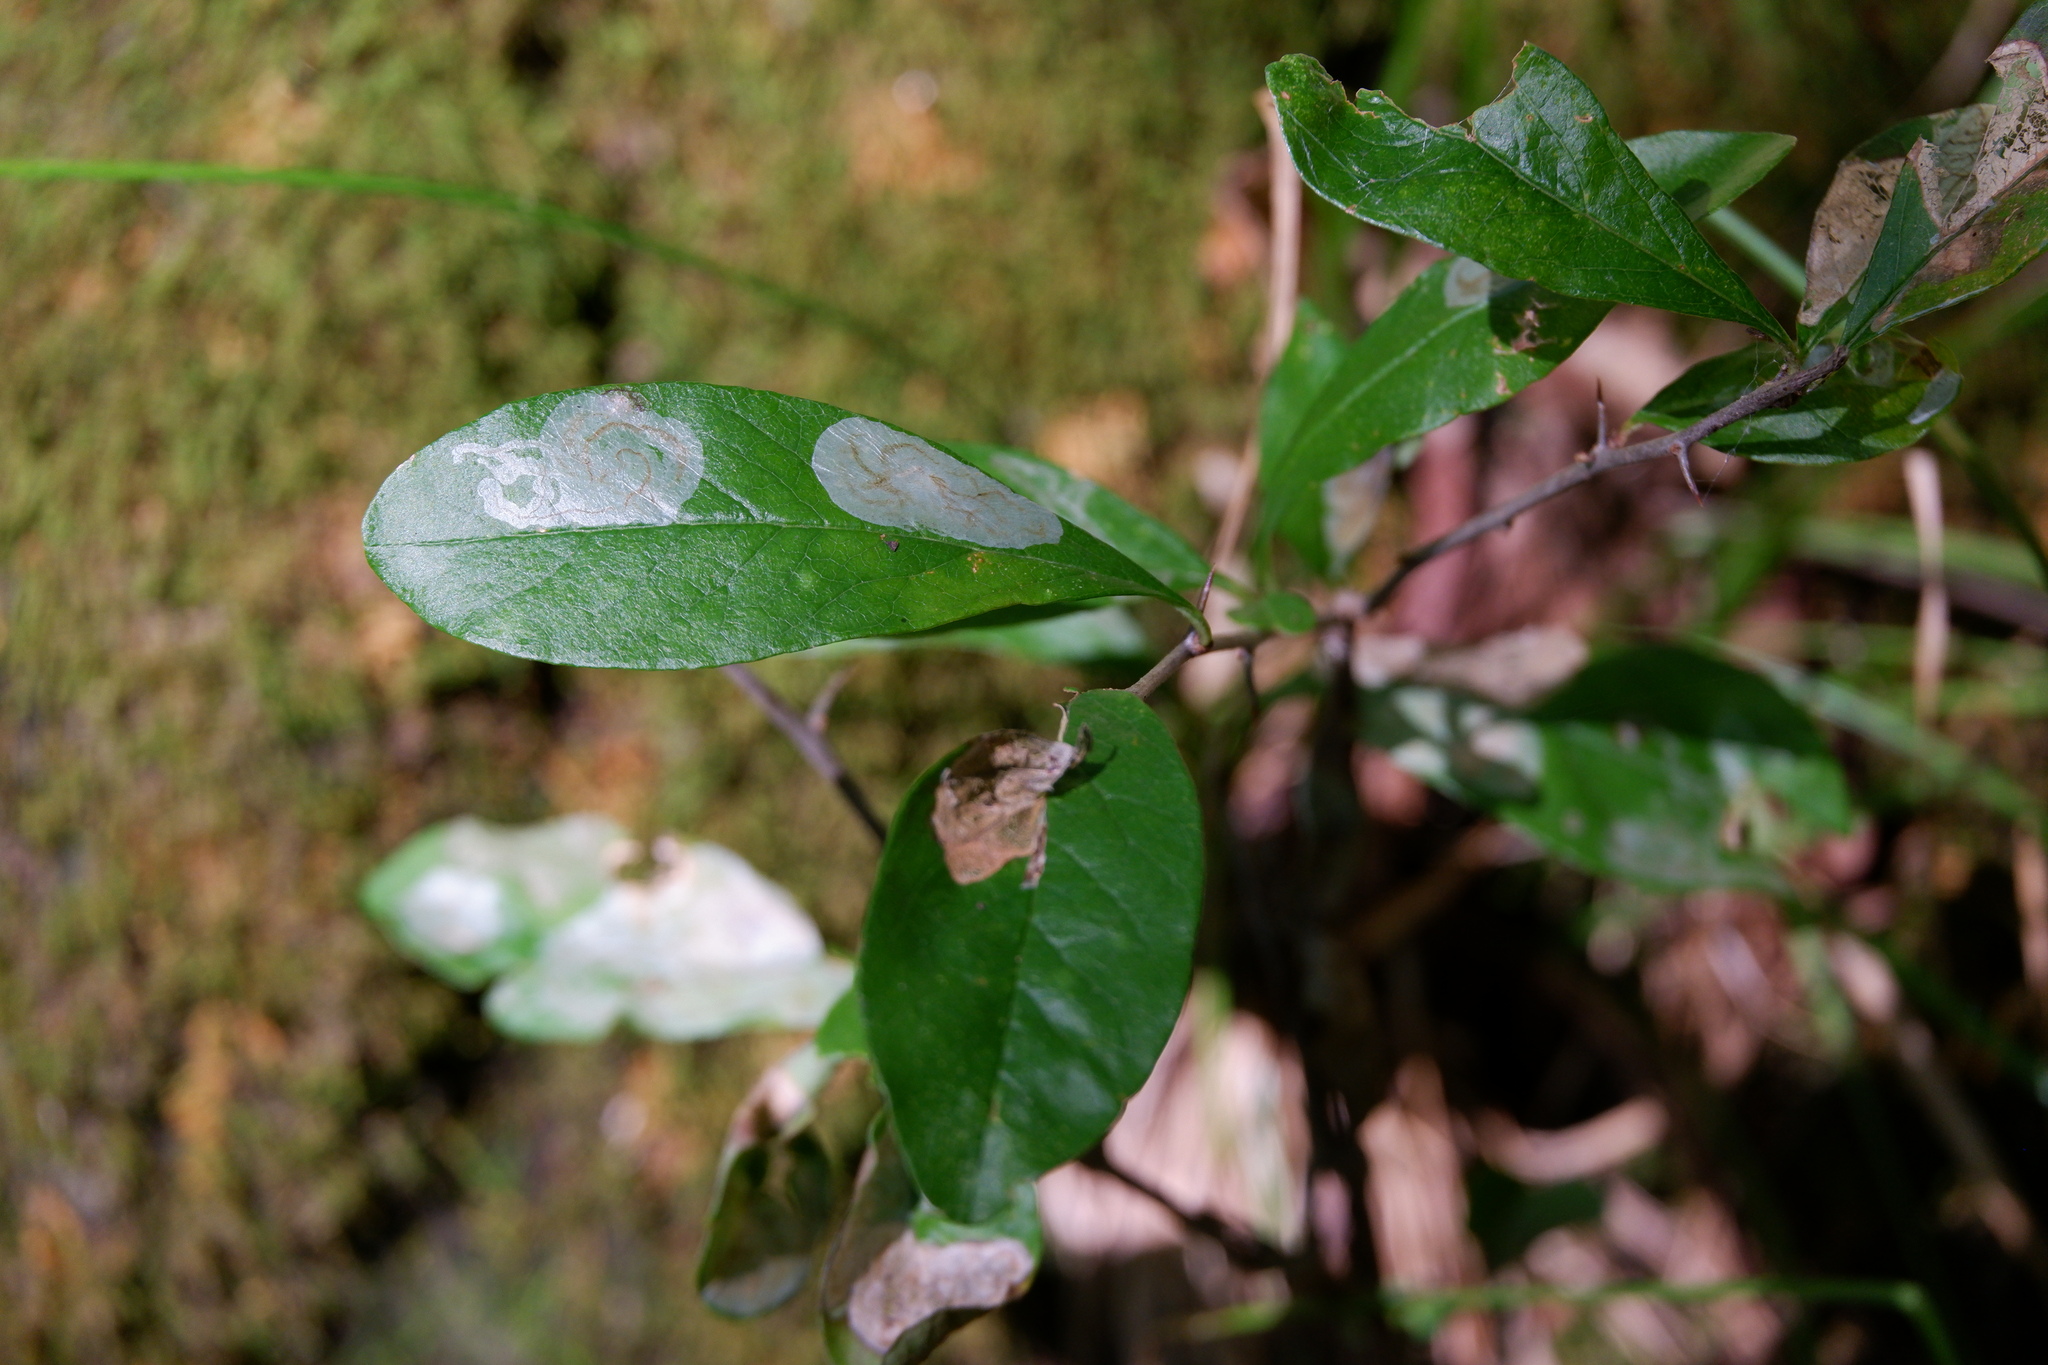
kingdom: Animalia
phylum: Arthropoda
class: Insecta
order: Lepidoptera
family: Gracillariidae
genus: Parectopa
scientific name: Parectopa bumeliella
